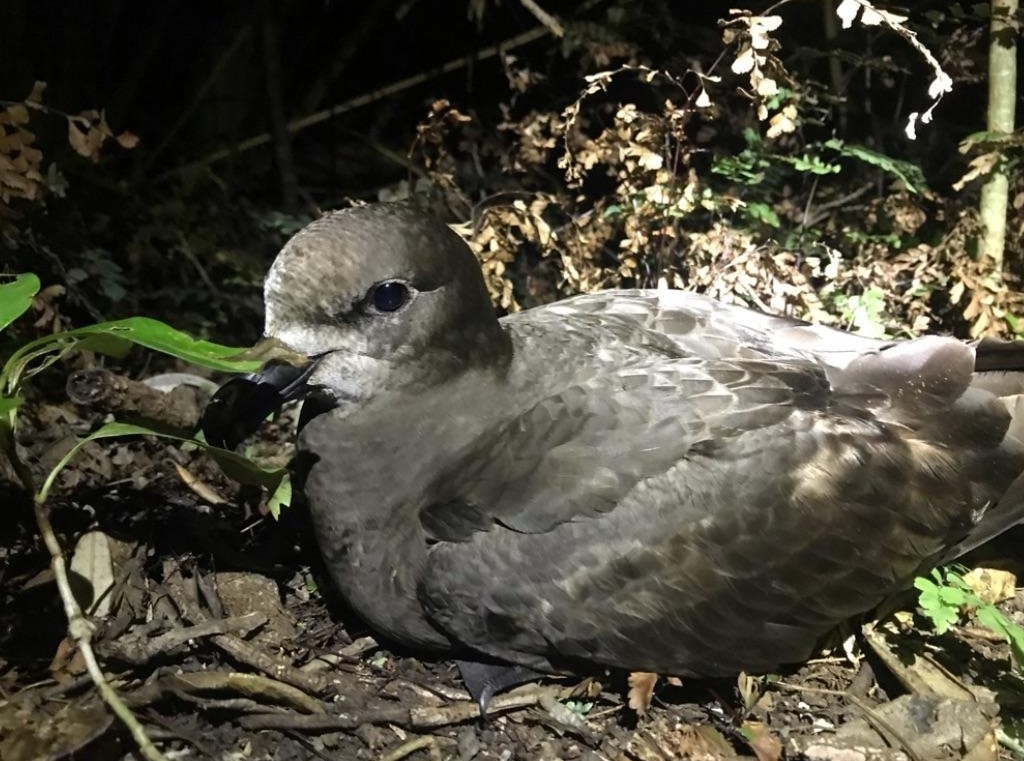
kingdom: Animalia
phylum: Chordata
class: Aves
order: Procellariiformes
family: Procellariidae
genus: Pterodroma
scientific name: Pterodroma macroptera
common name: Great-winged petrel
